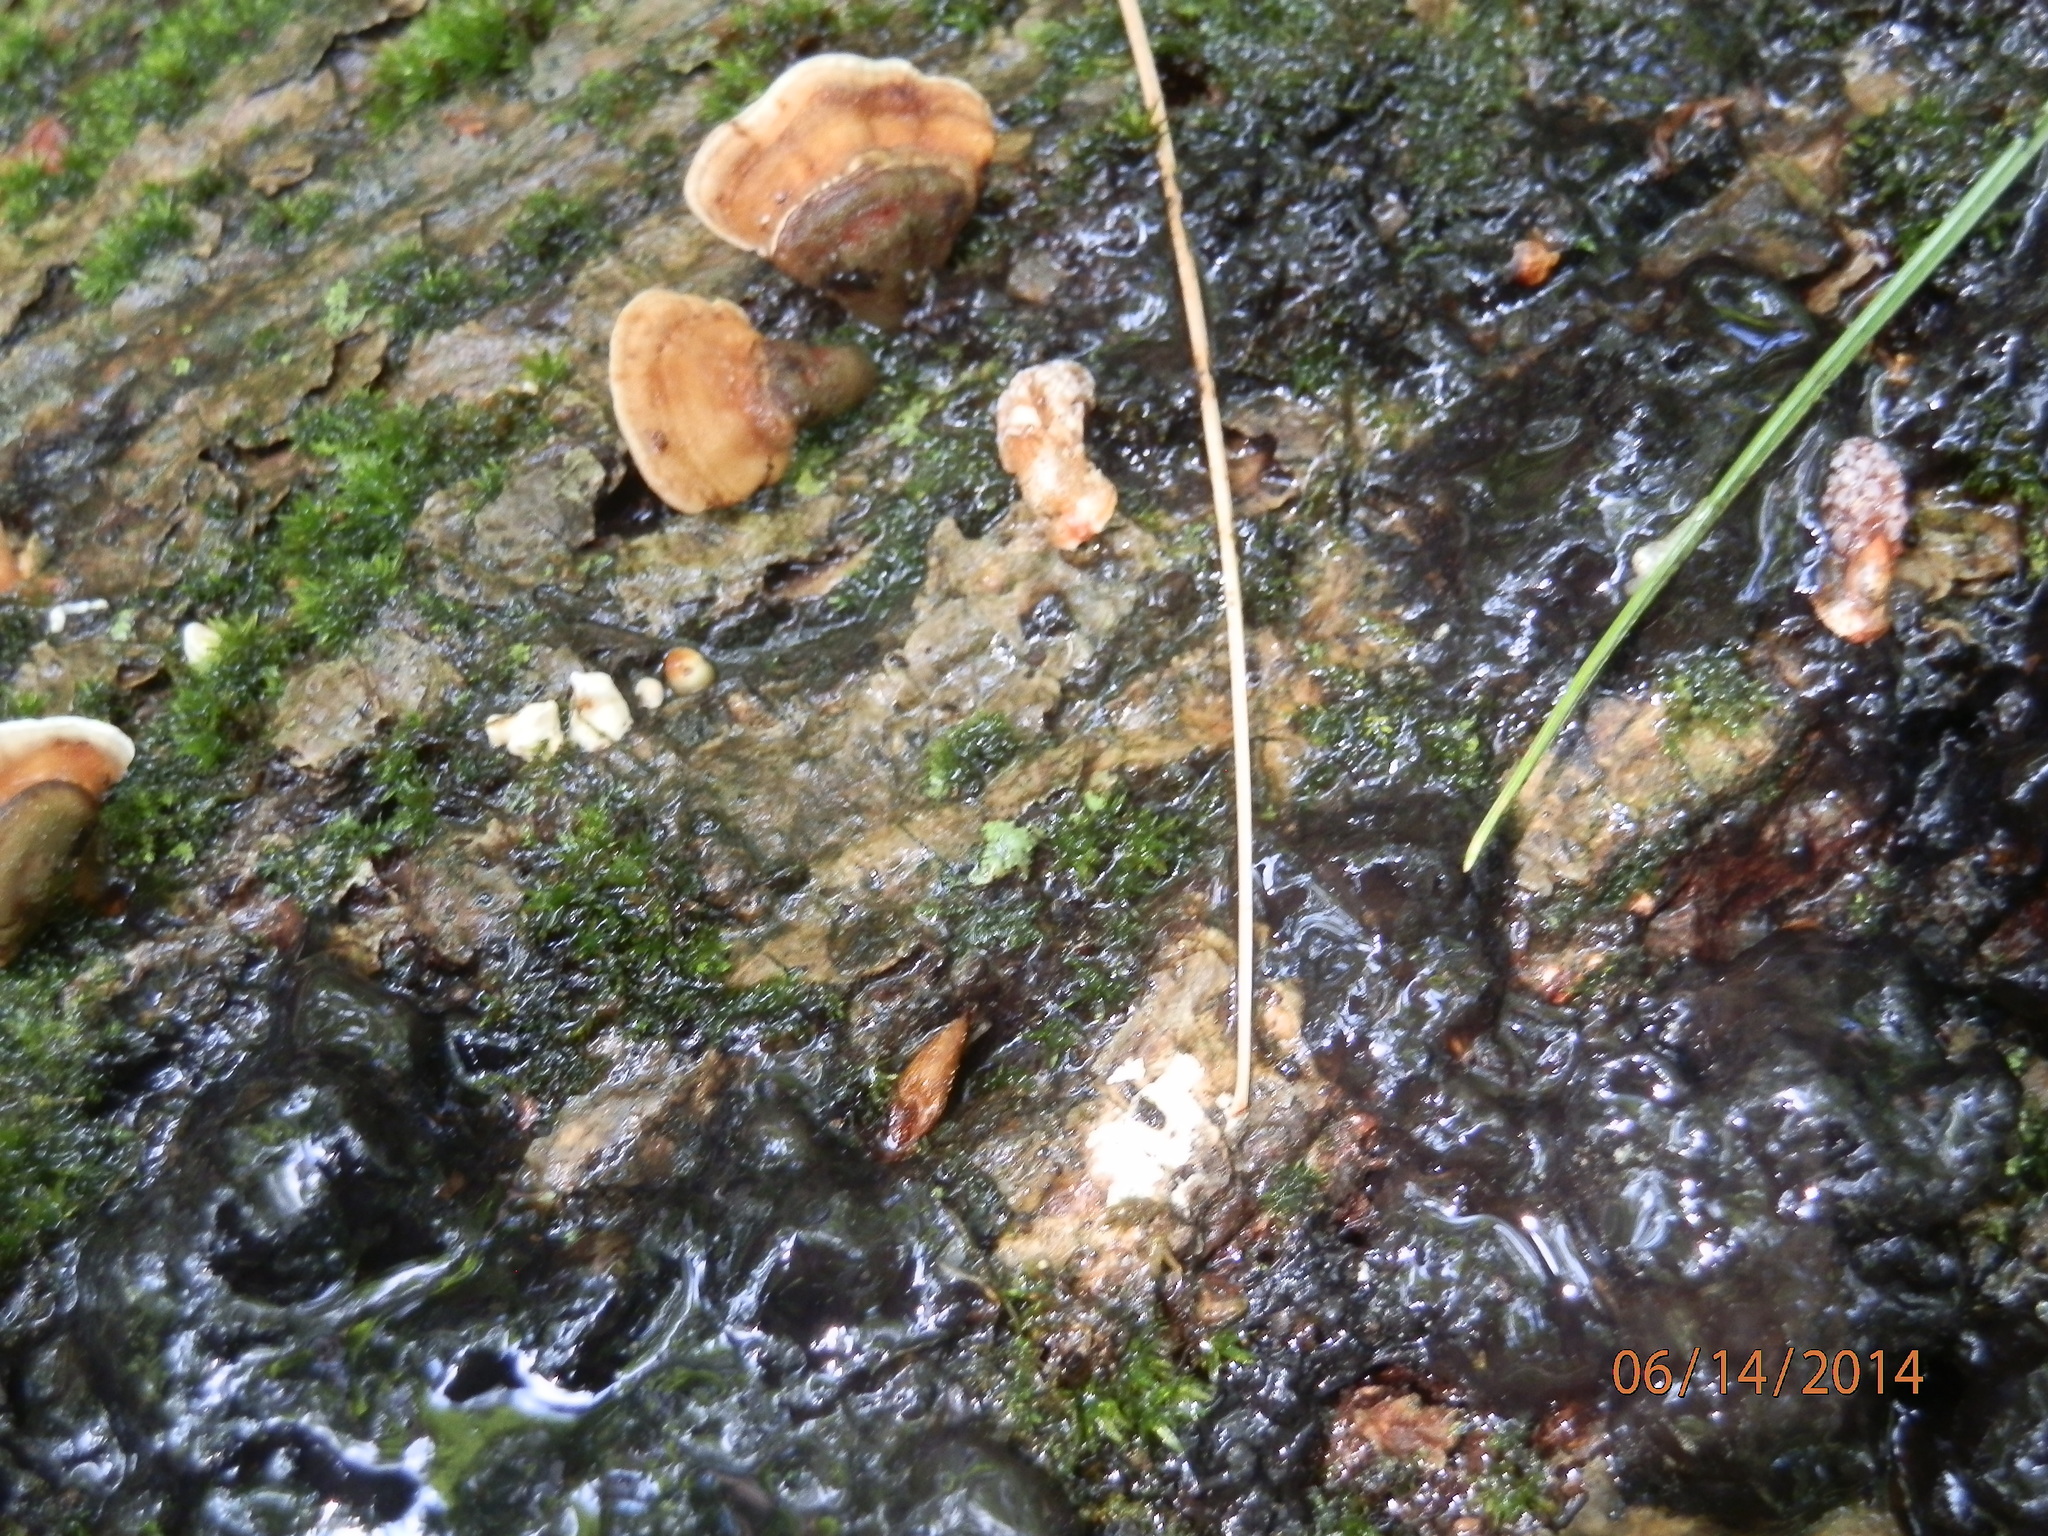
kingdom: Fungi
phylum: Basidiomycota
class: Agaricomycetes
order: Auriculariales
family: Auriculariaceae
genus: Exidia
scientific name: Exidia glandulosa
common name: Witches' butter
